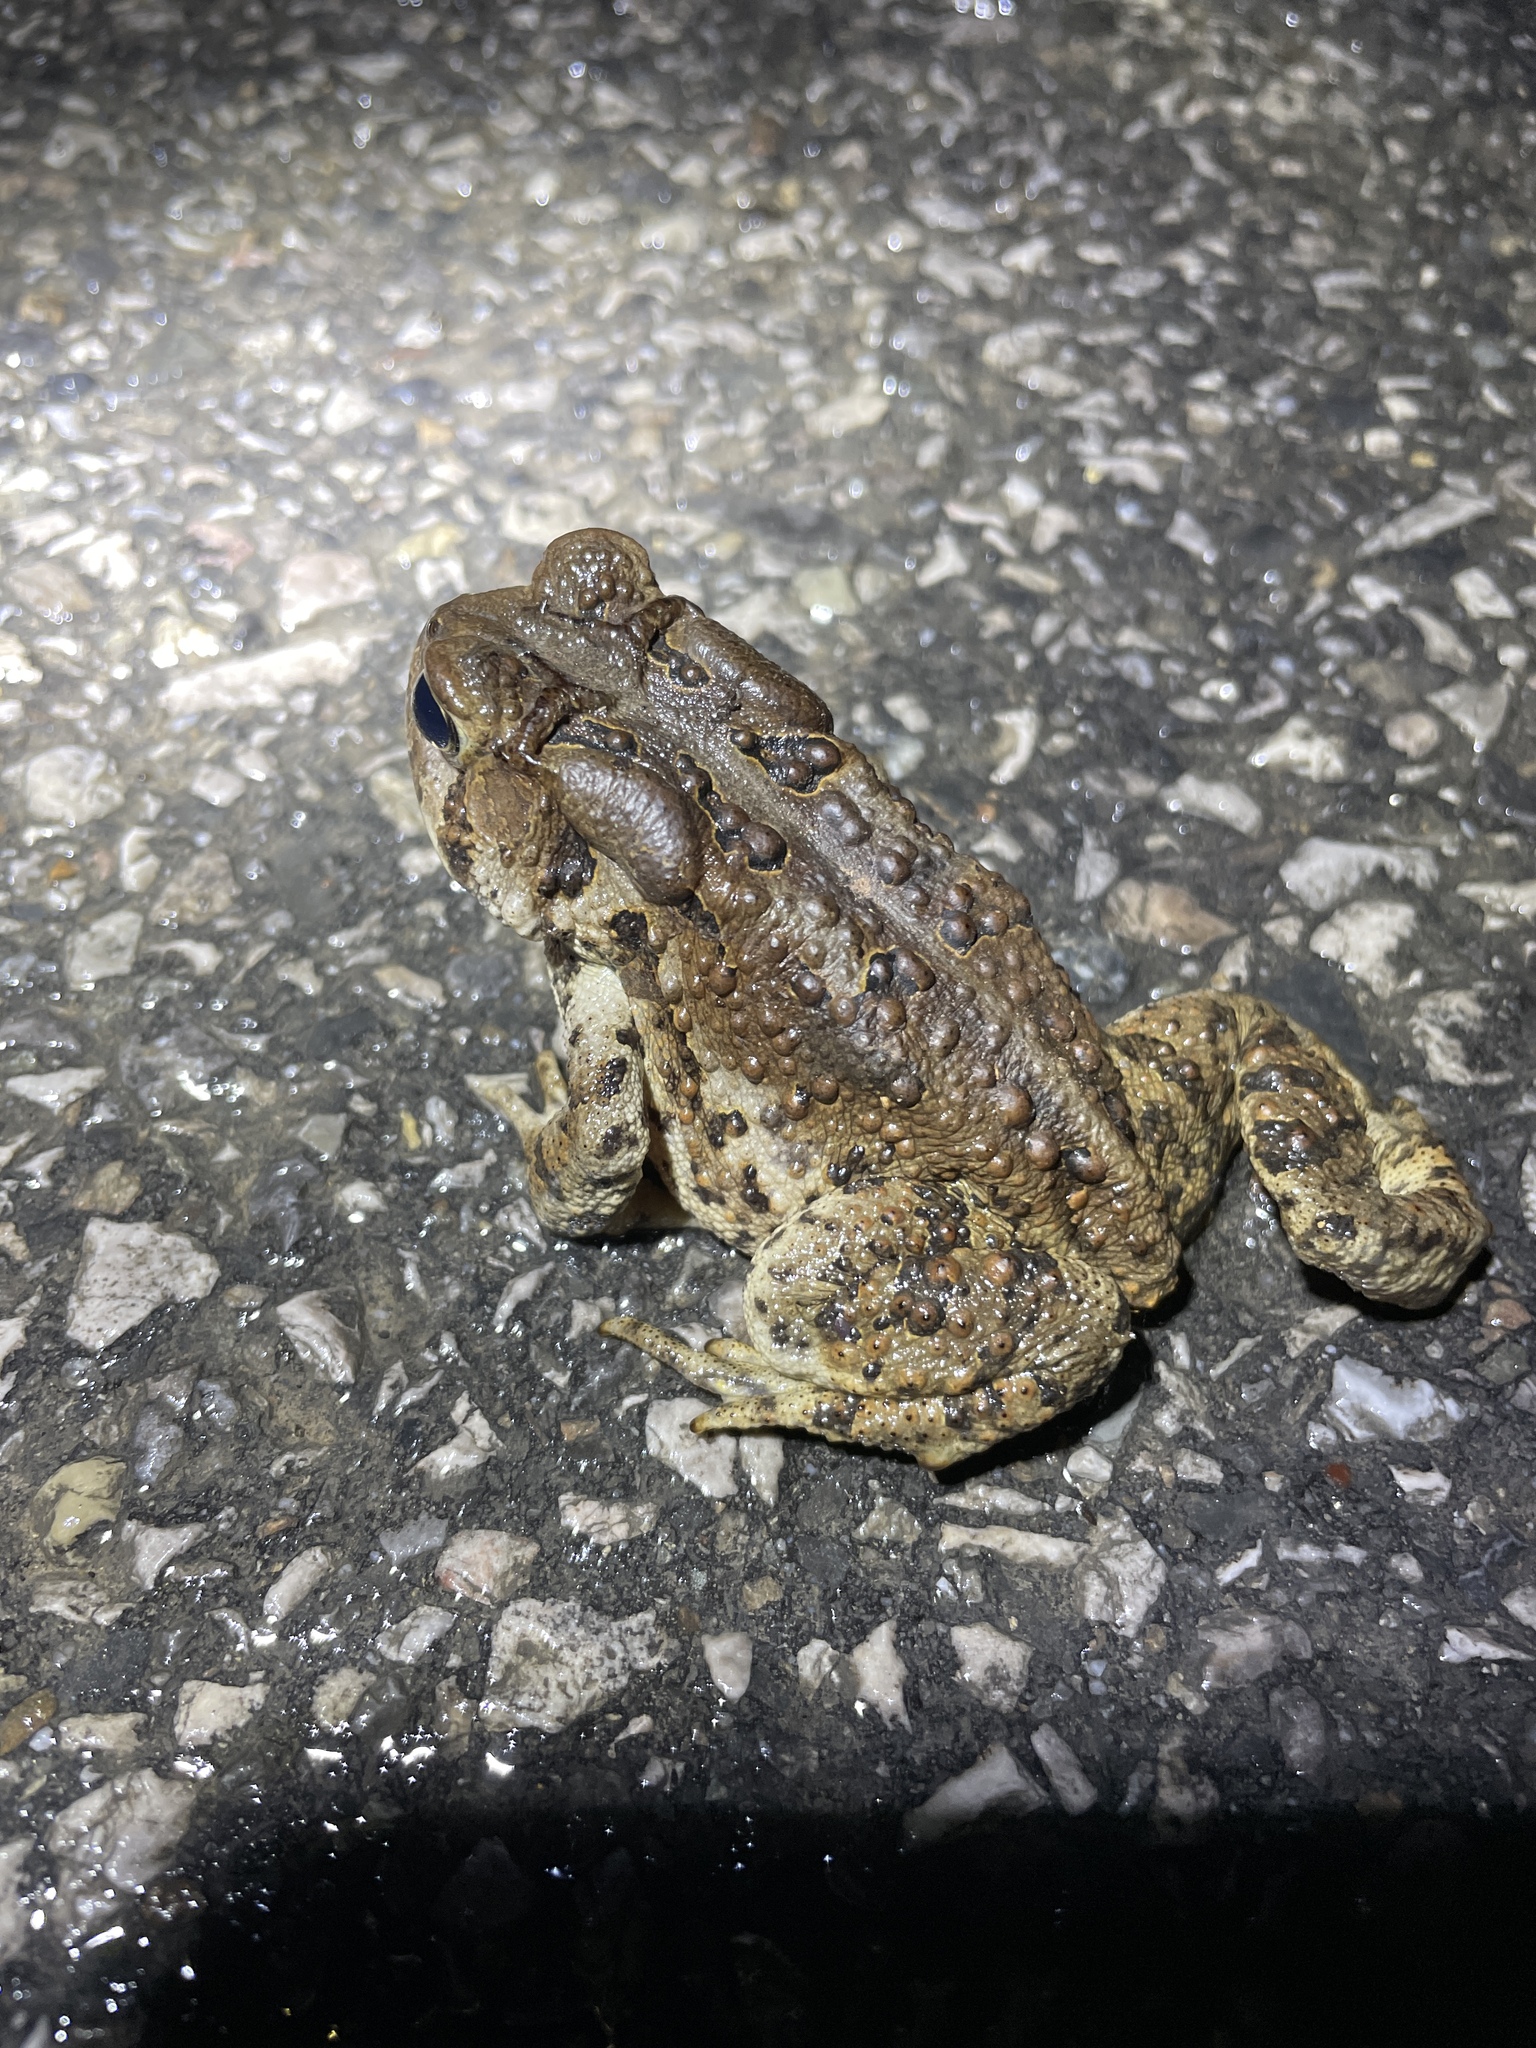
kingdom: Animalia
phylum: Chordata
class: Amphibia
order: Anura
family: Bufonidae
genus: Anaxyrus
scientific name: Anaxyrus americanus
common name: American toad
